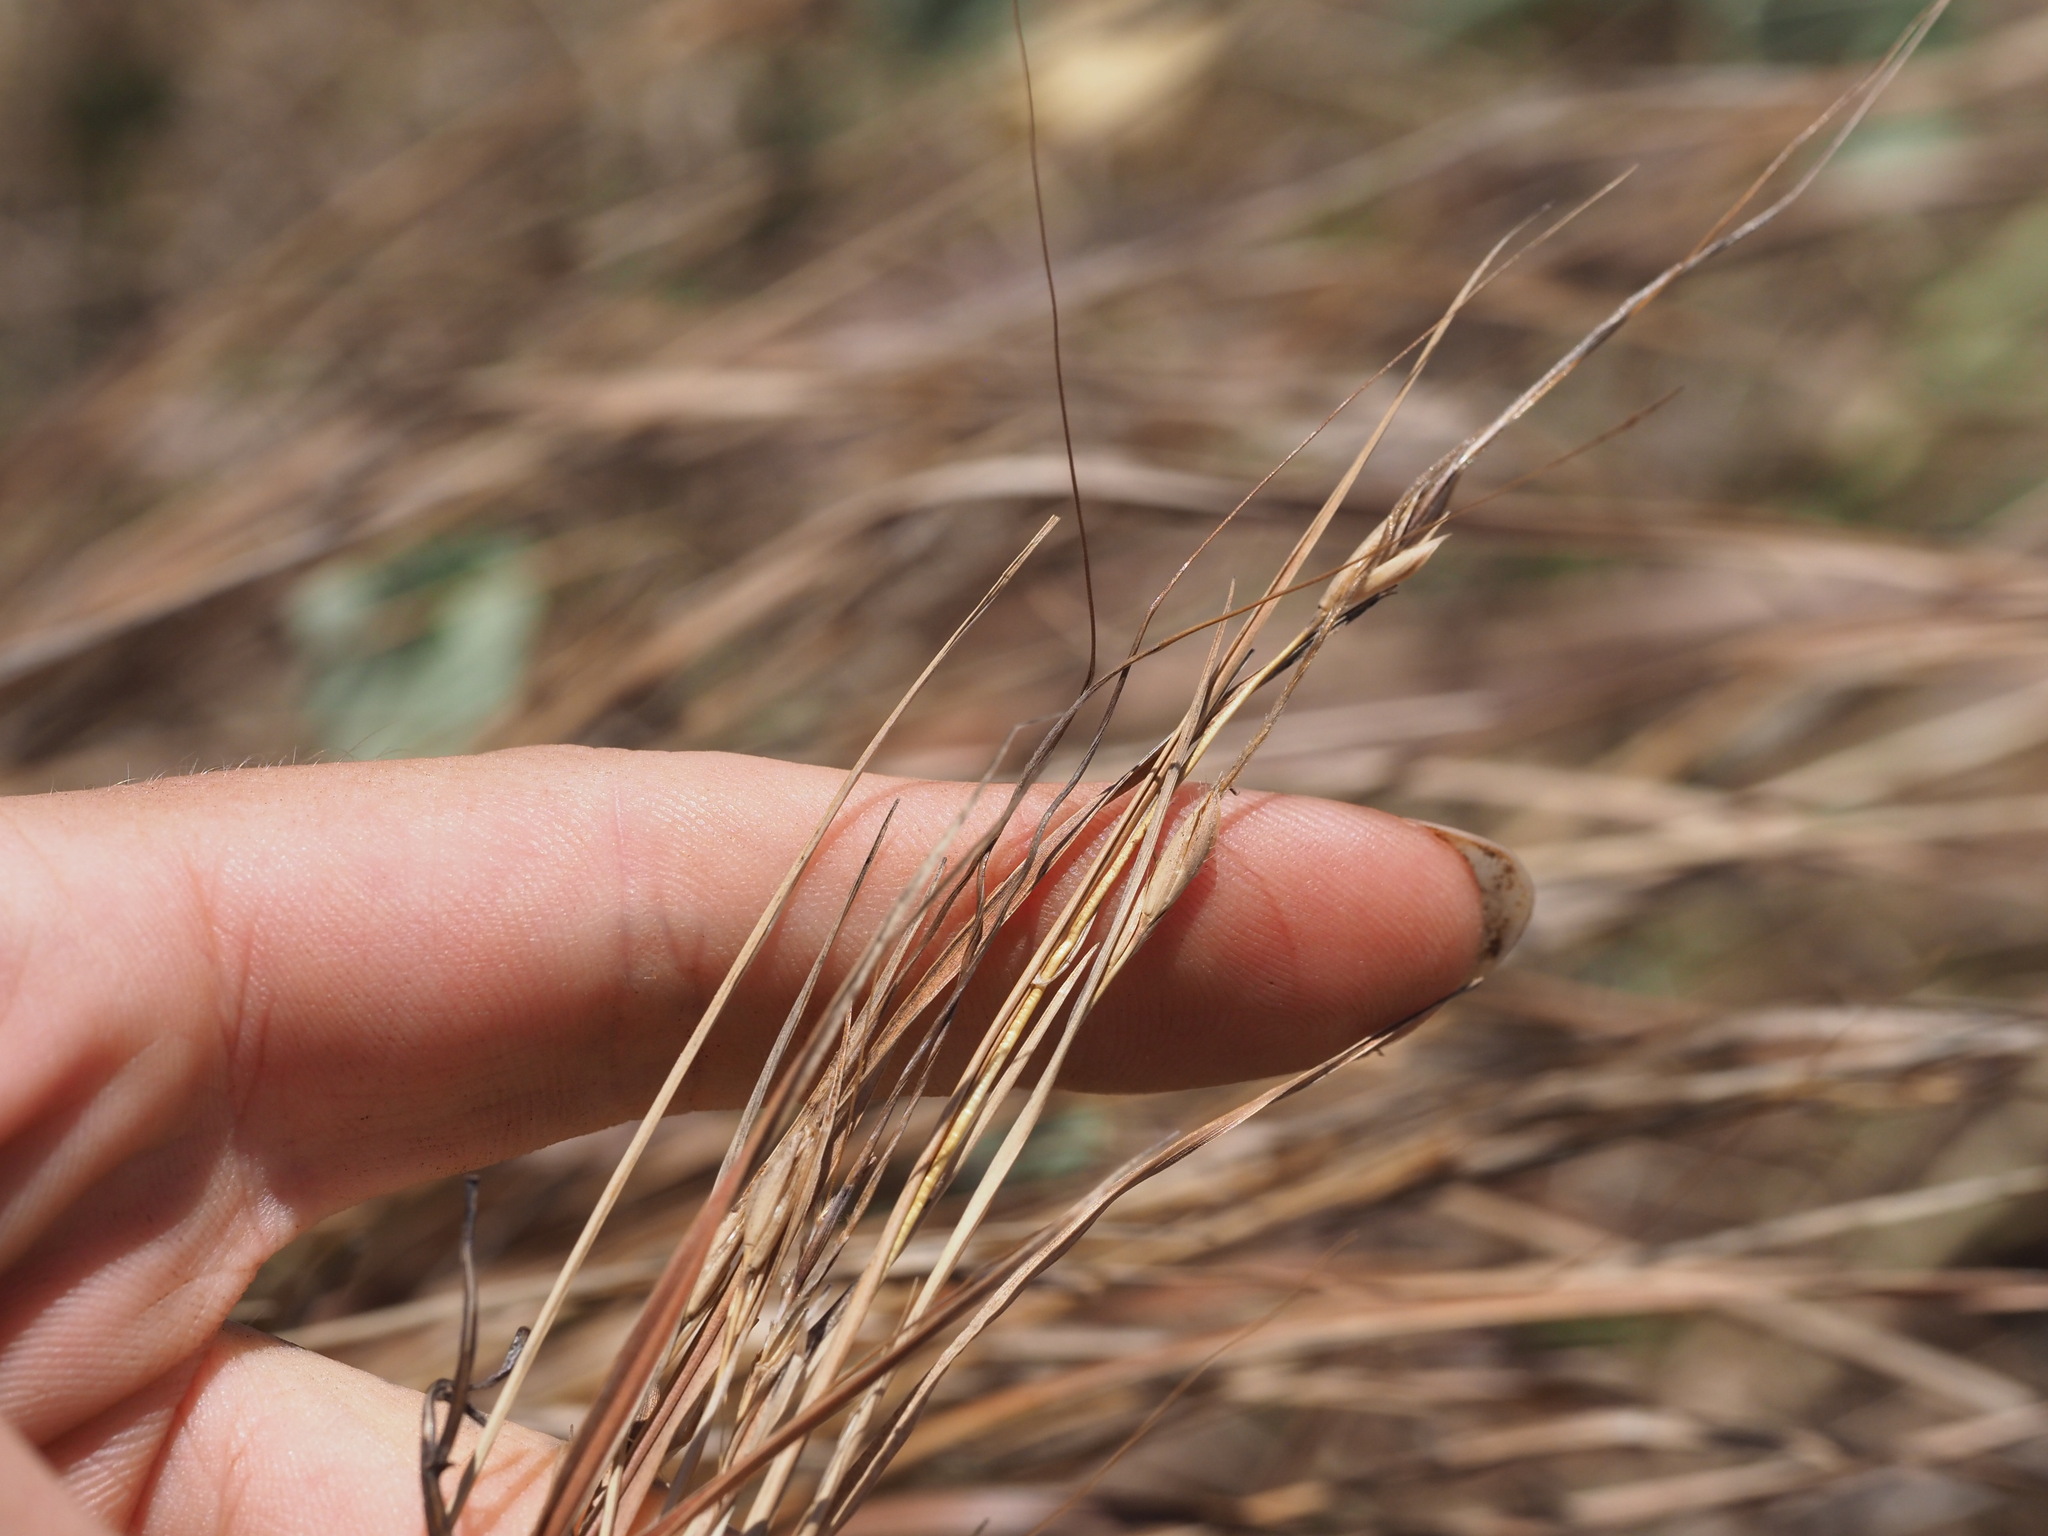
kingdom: Plantae
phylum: Tracheophyta
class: Liliopsida
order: Poales
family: Poaceae
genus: Heteropogon
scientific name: Heteropogon contortus
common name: Tanglehead
